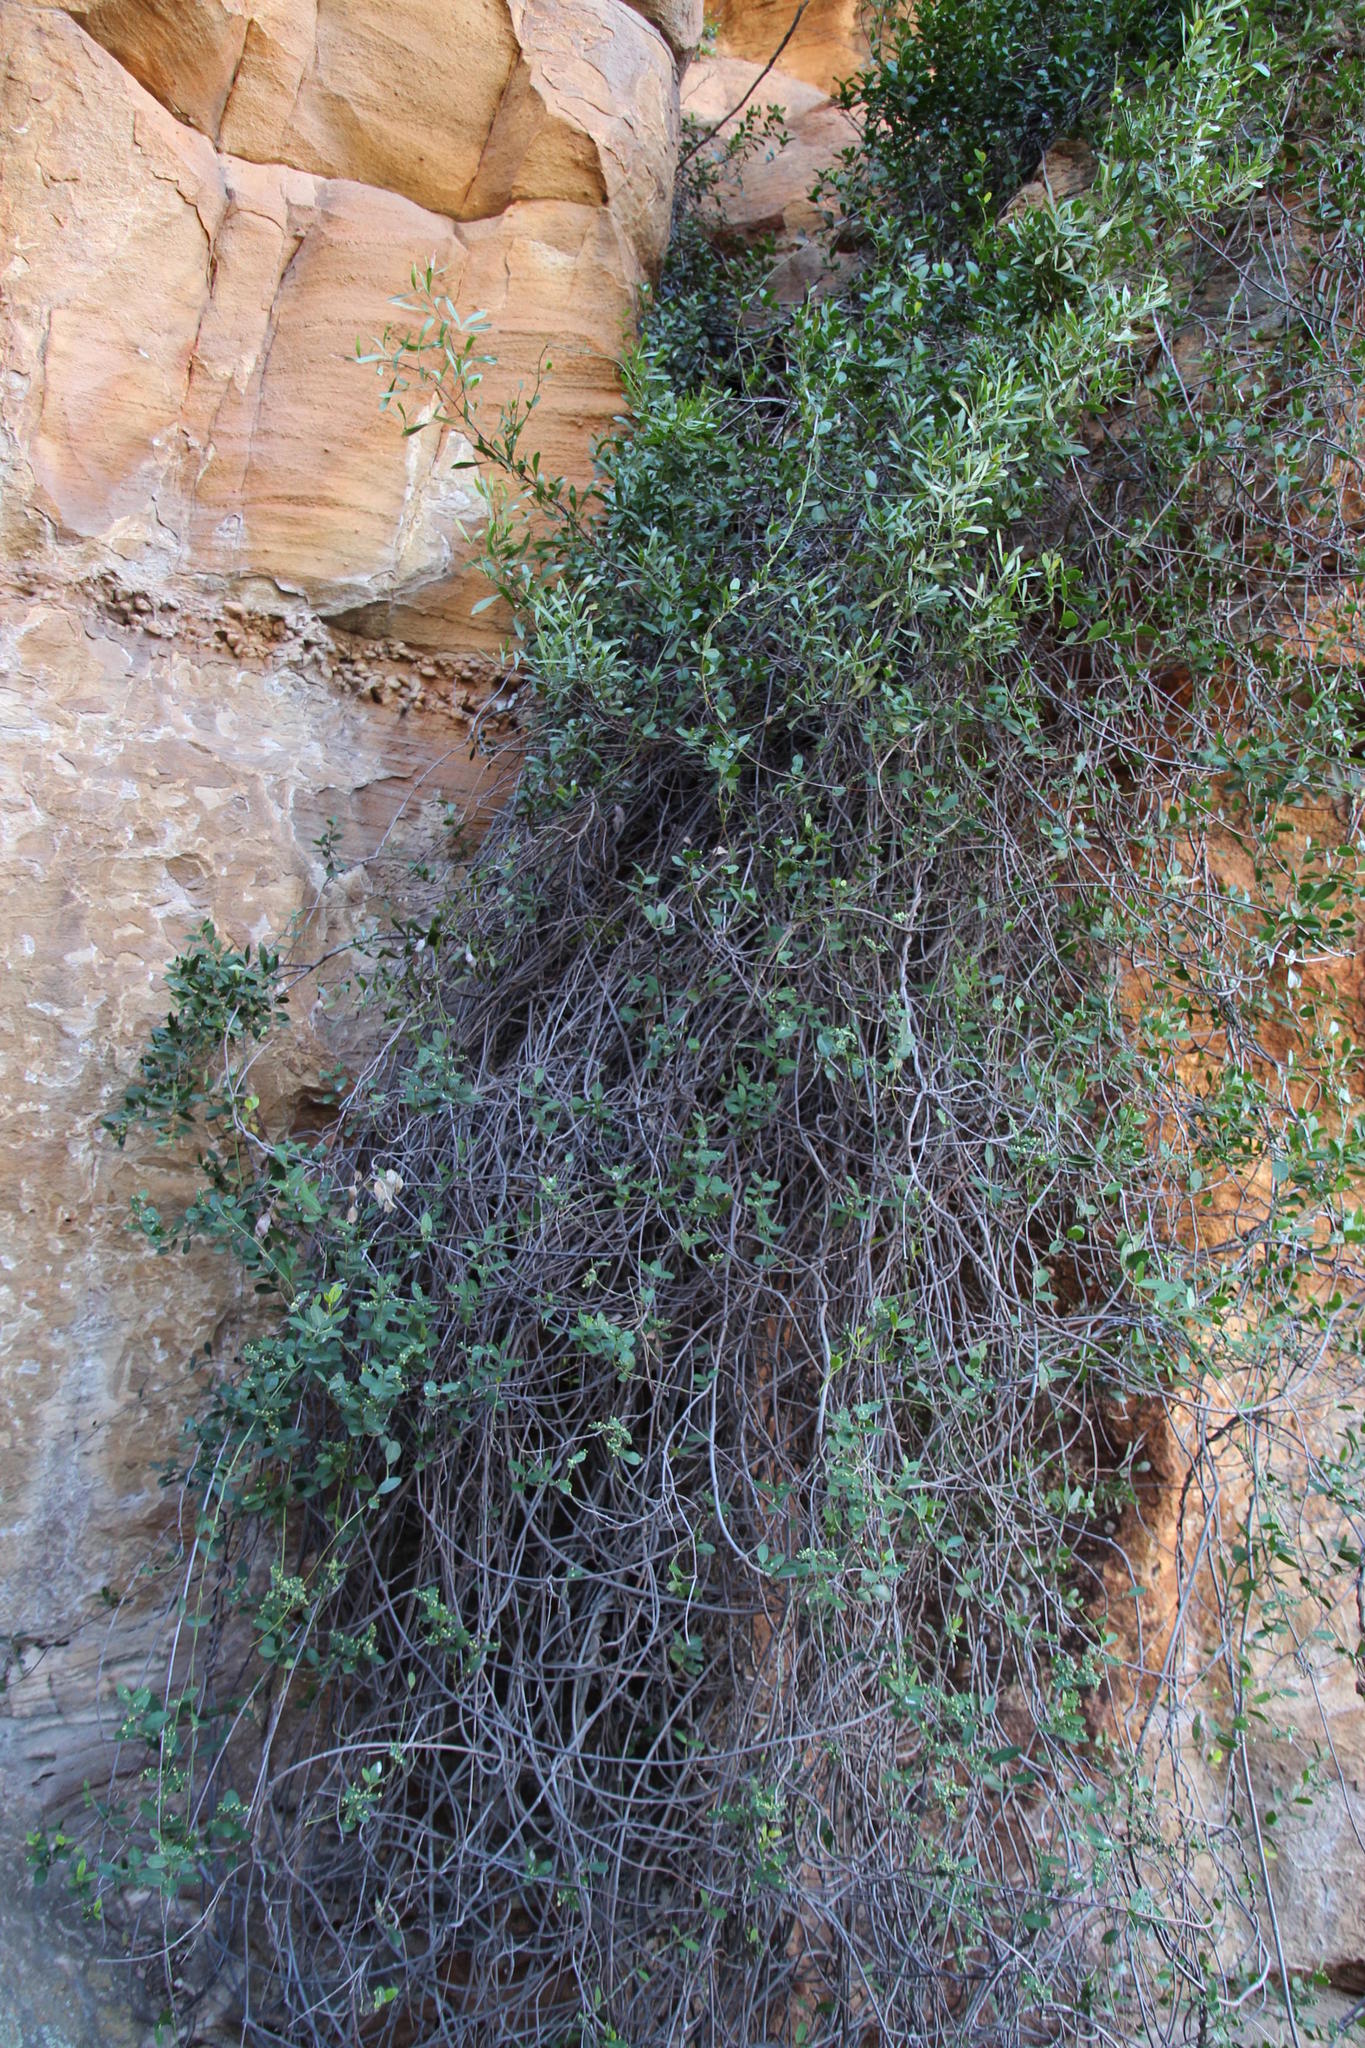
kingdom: Plantae
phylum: Tracheophyta
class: Magnoliopsida
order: Gentianales
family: Apocynaceae
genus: Secamone
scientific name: Secamone alpini
